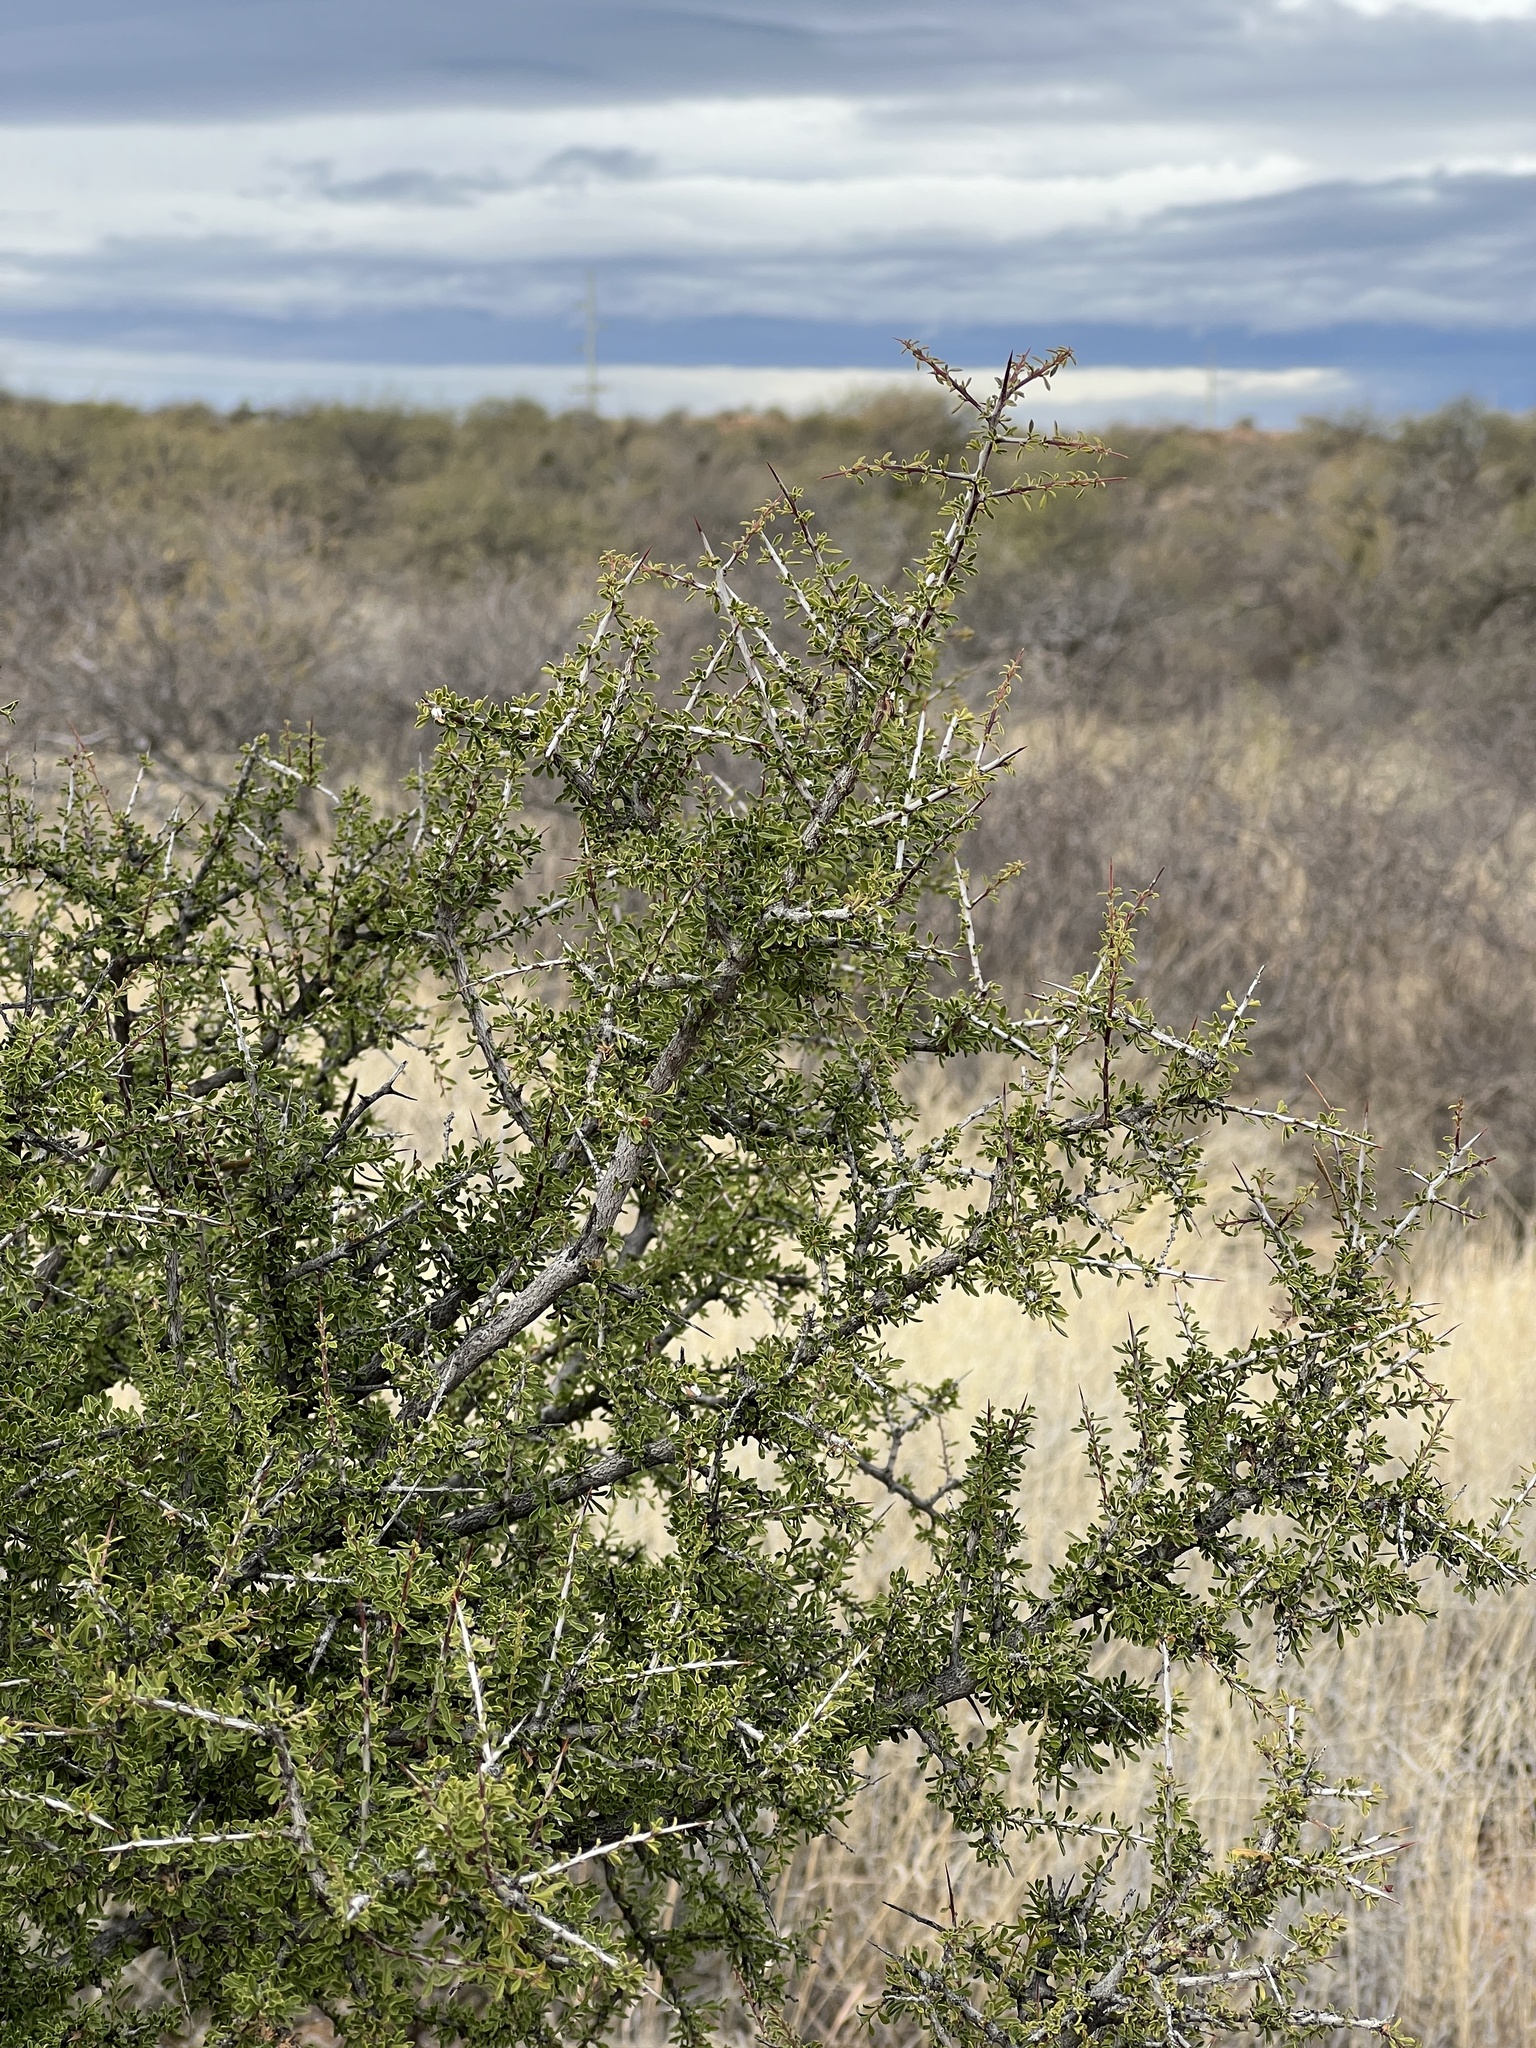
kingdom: Plantae
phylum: Tracheophyta
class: Magnoliopsida
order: Rosales
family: Rhamnaceae
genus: Condalia
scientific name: Condalia warnockii
